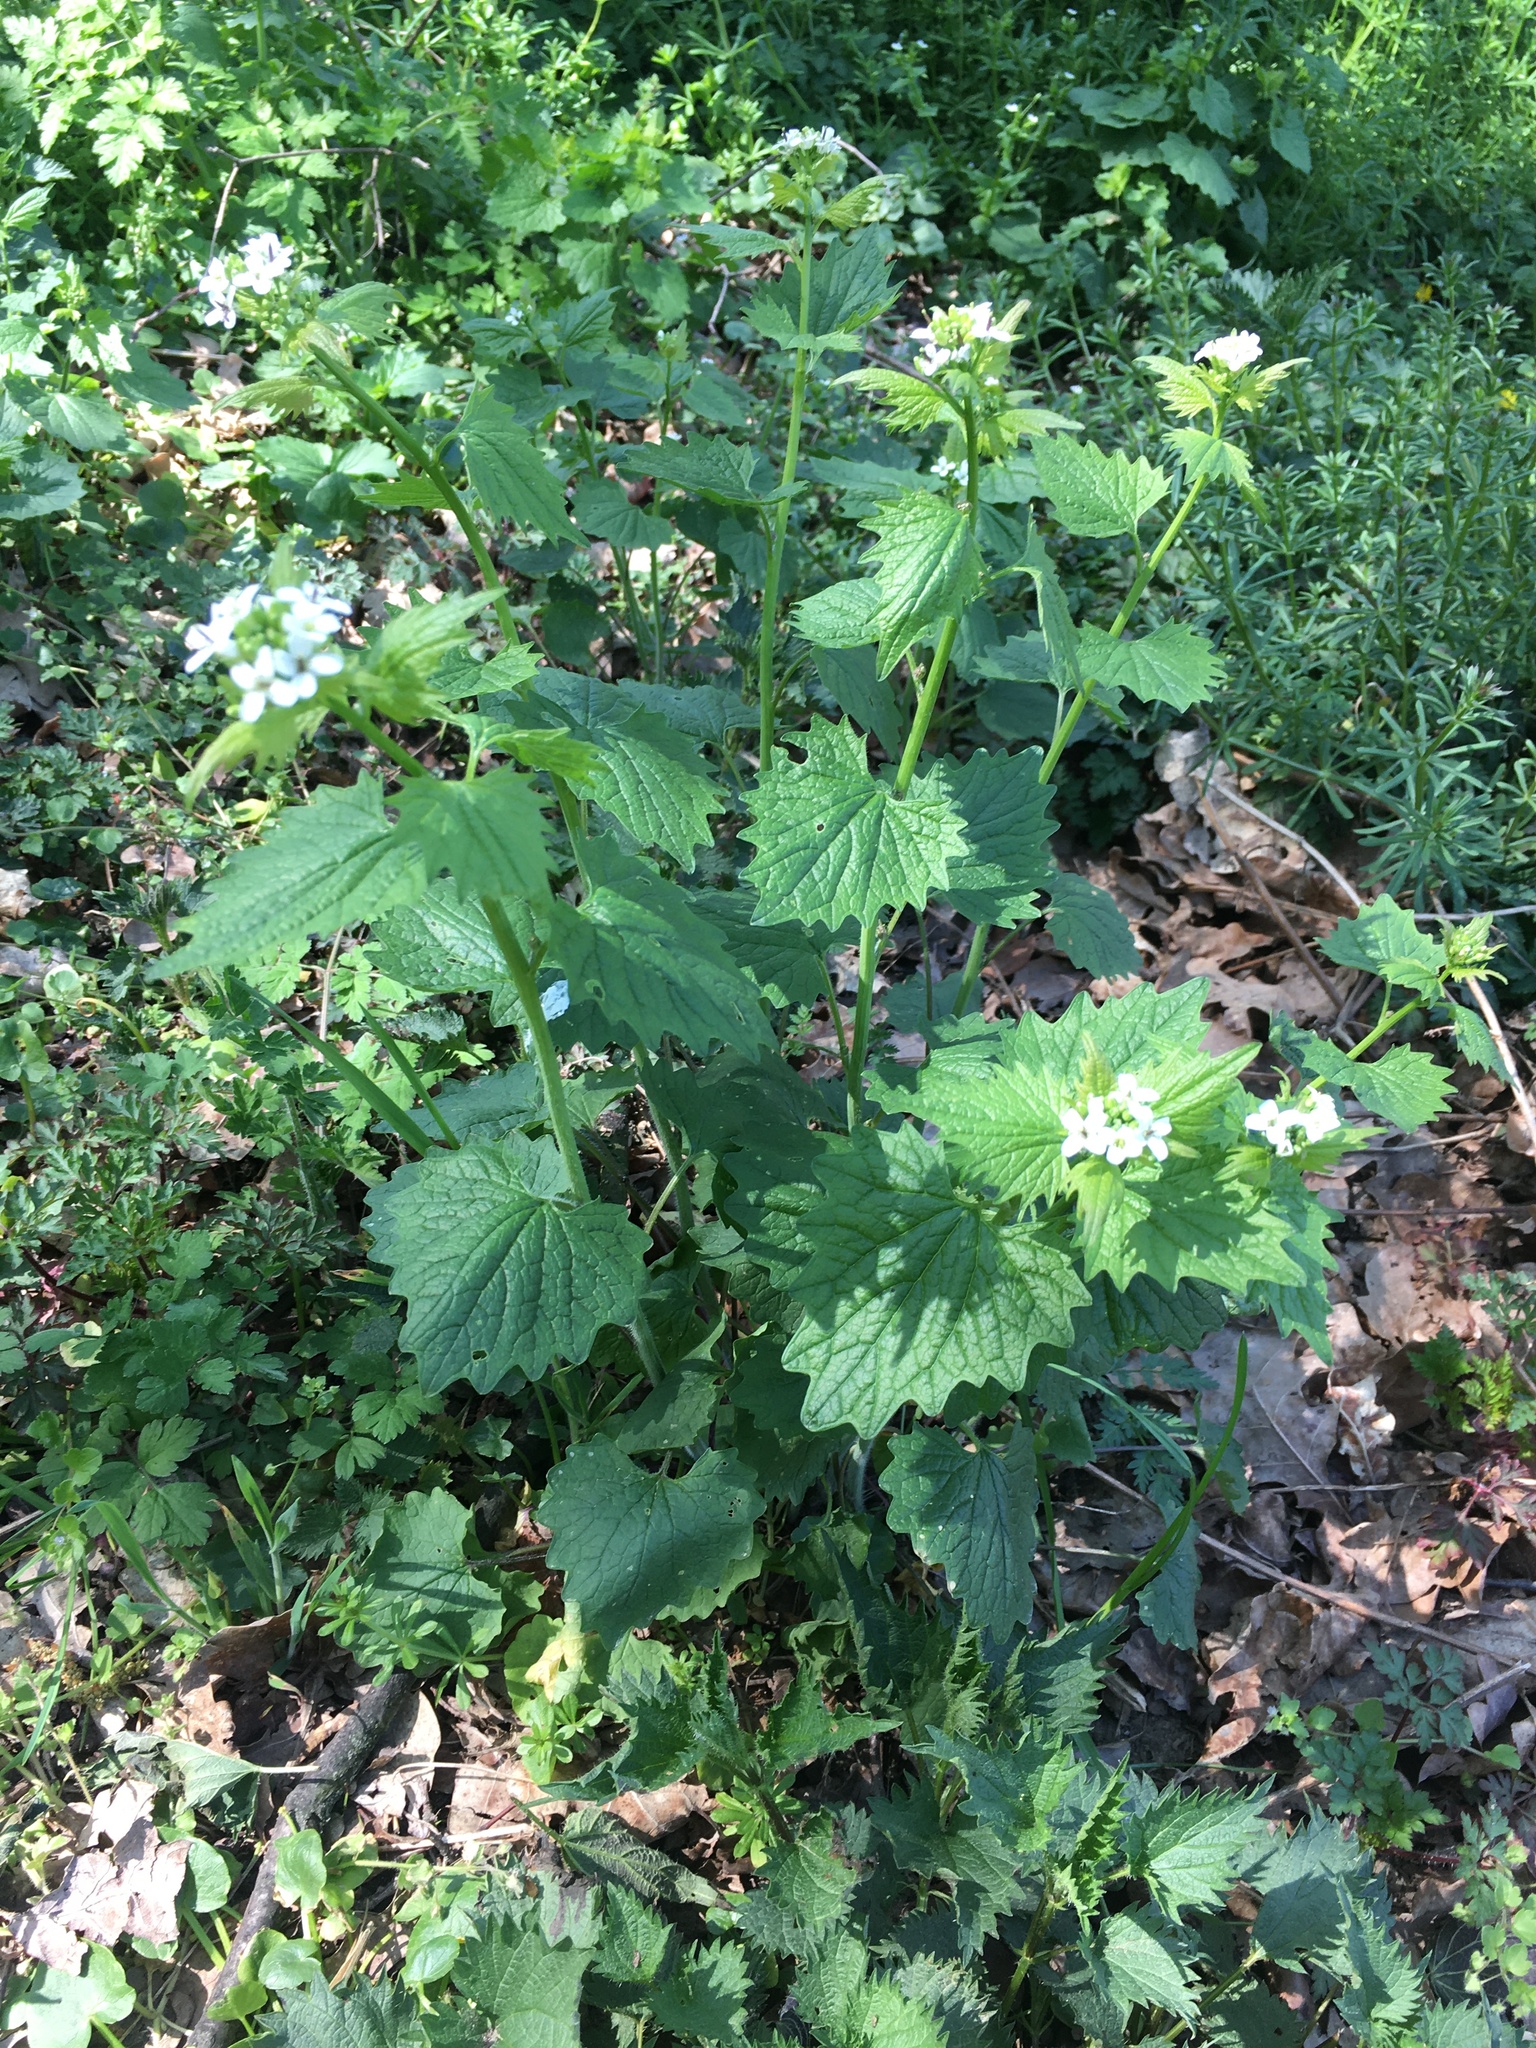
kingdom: Plantae
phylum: Tracheophyta
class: Magnoliopsida
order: Brassicales
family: Brassicaceae
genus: Alliaria
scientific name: Alliaria petiolata
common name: Garlic mustard
